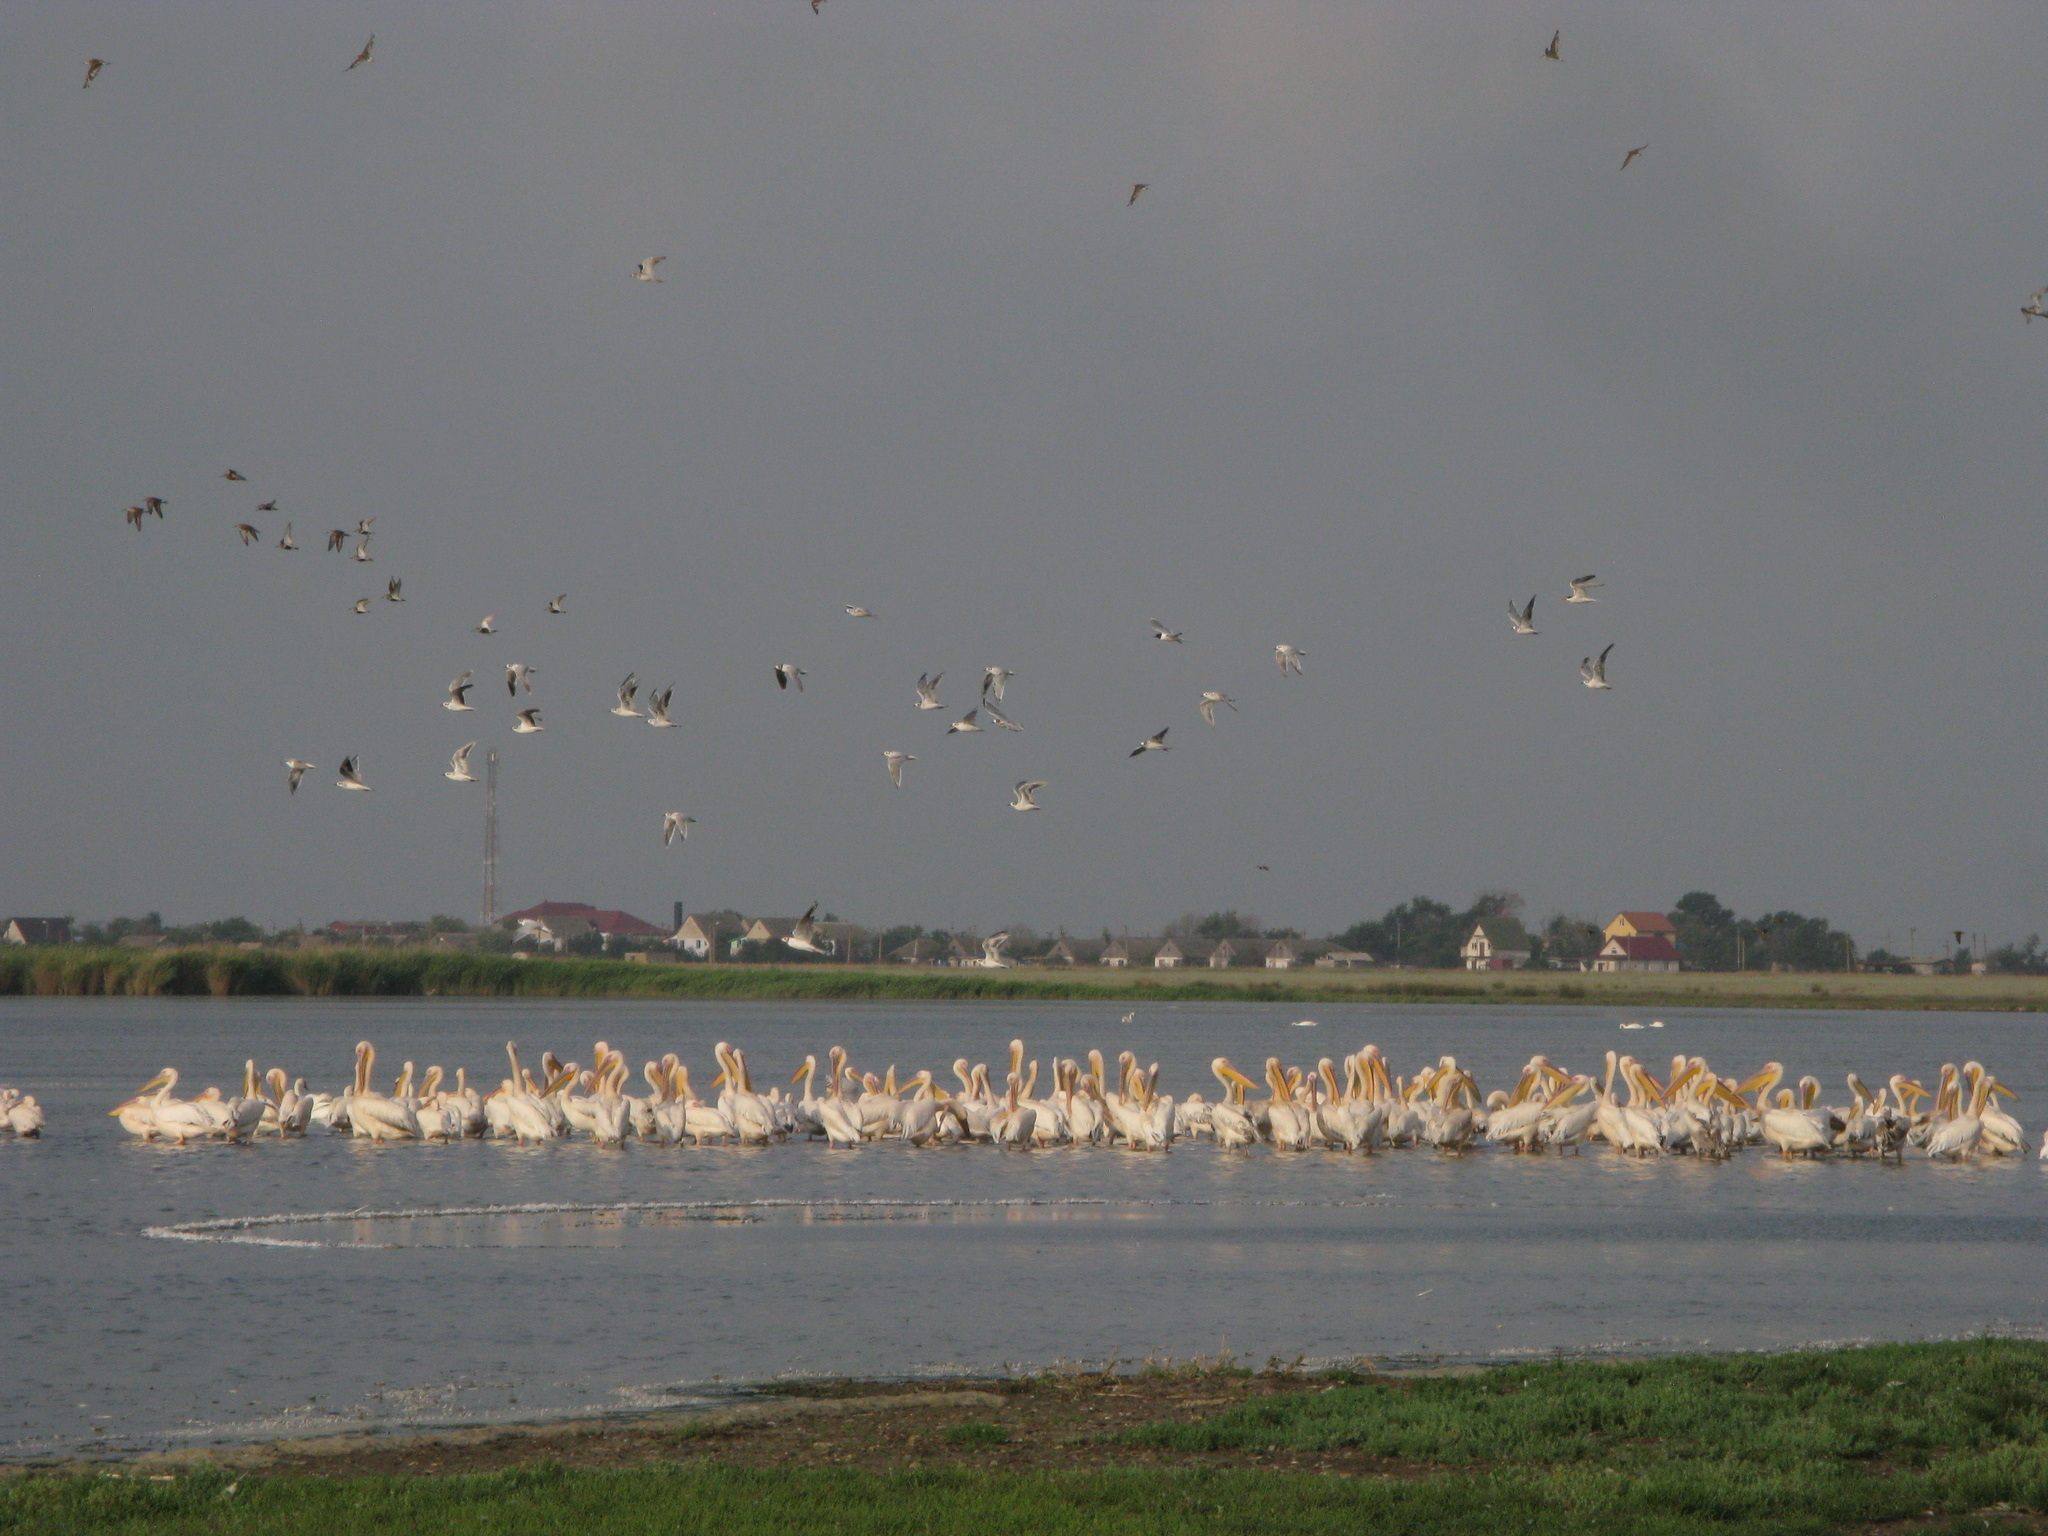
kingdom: Animalia
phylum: Chordata
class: Aves
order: Pelecaniformes
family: Pelecanidae
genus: Pelecanus
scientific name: Pelecanus onocrotalus
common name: Great white pelican
